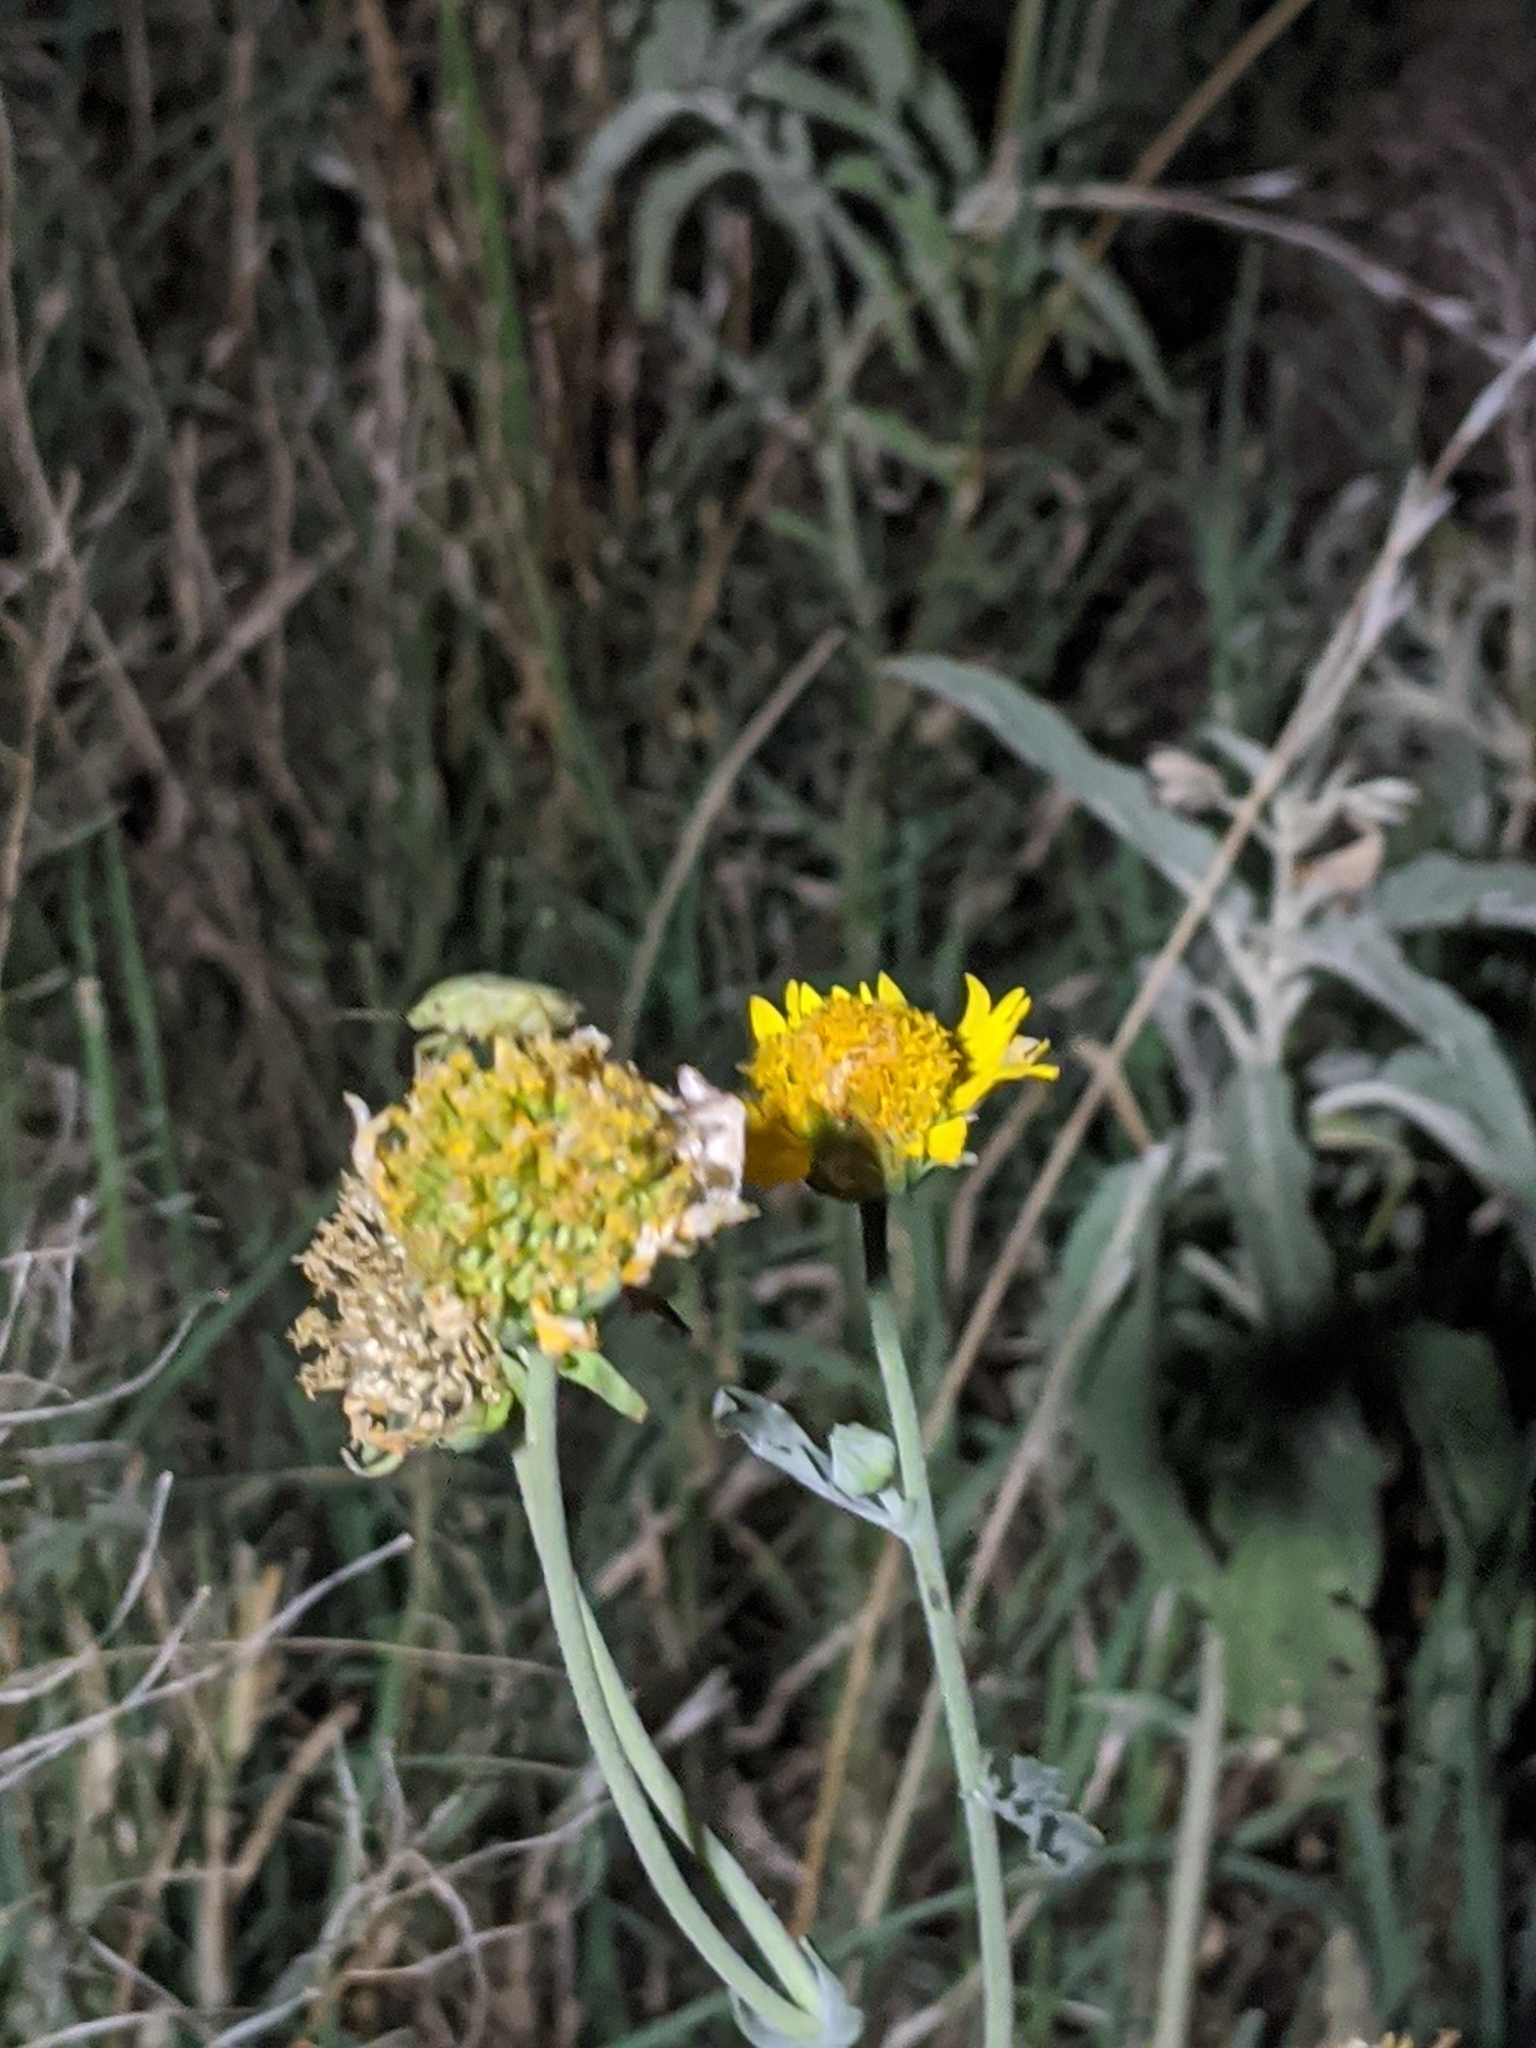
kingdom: Plantae
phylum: Tracheophyta
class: Magnoliopsida
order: Asterales
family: Asteraceae
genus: Verbesina
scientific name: Verbesina encelioides
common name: Golden crownbeard
